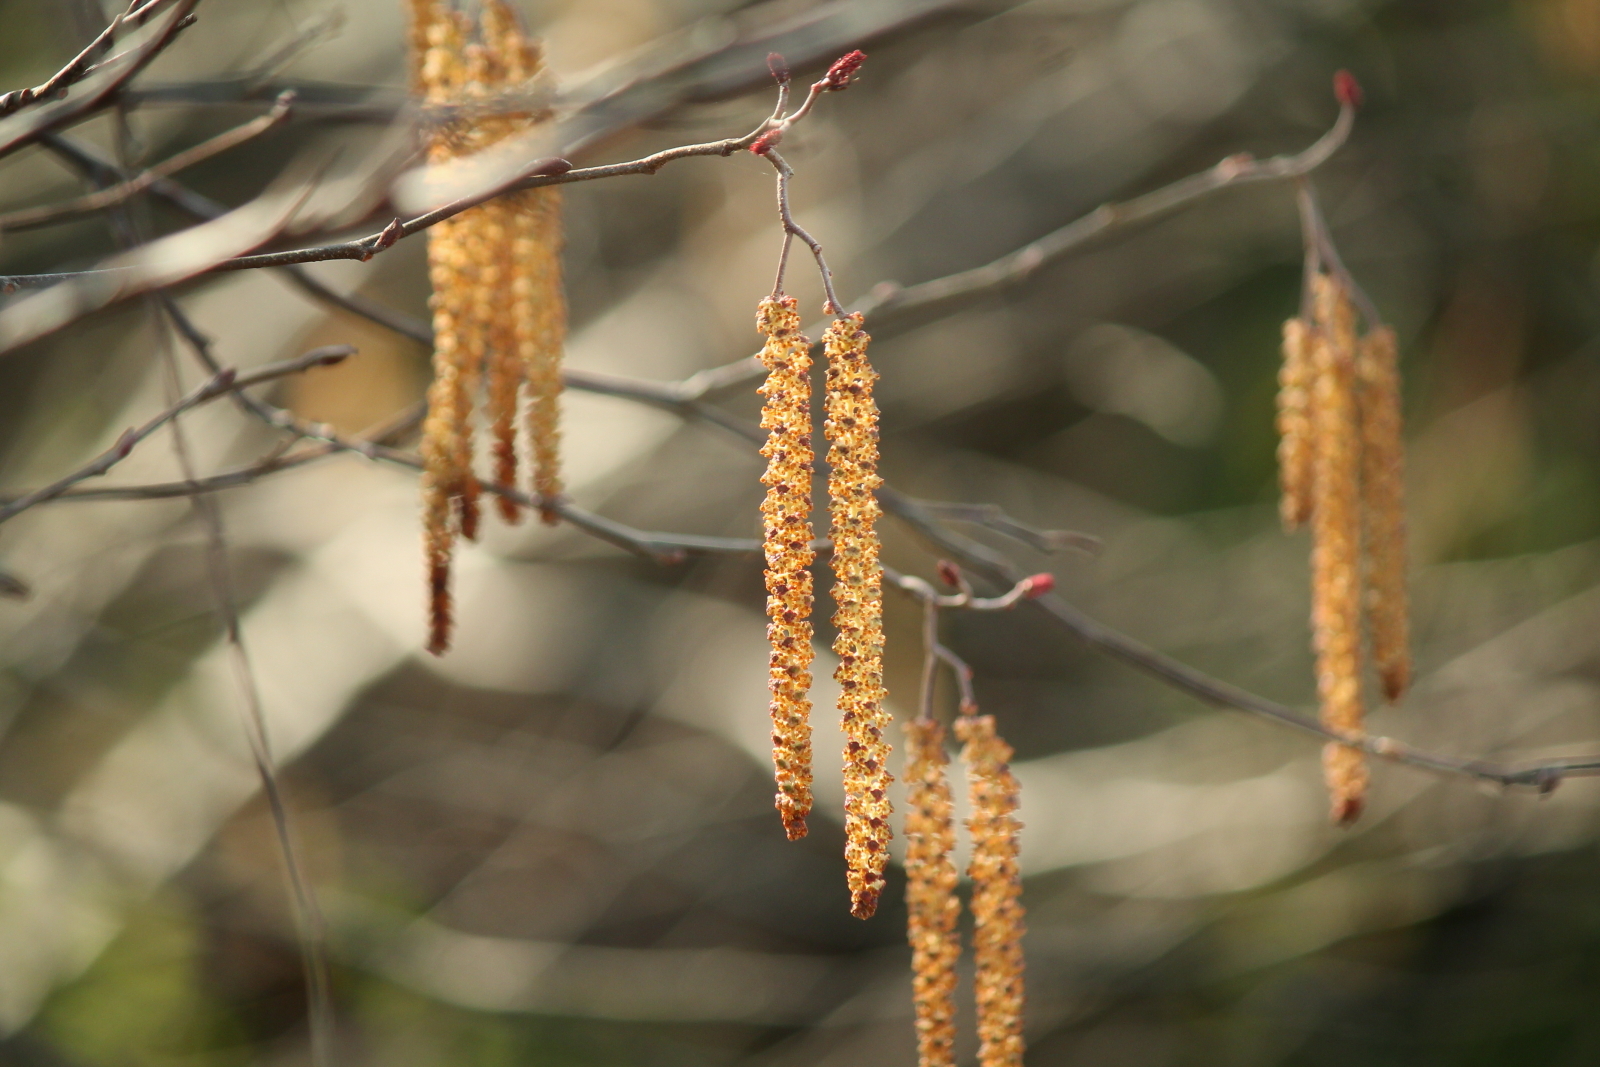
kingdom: Plantae
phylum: Tracheophyta
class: Magnoliopsida
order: Fagales
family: Betulaceae
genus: Alnus
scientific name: Alnus serrulata
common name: Hazel alder
